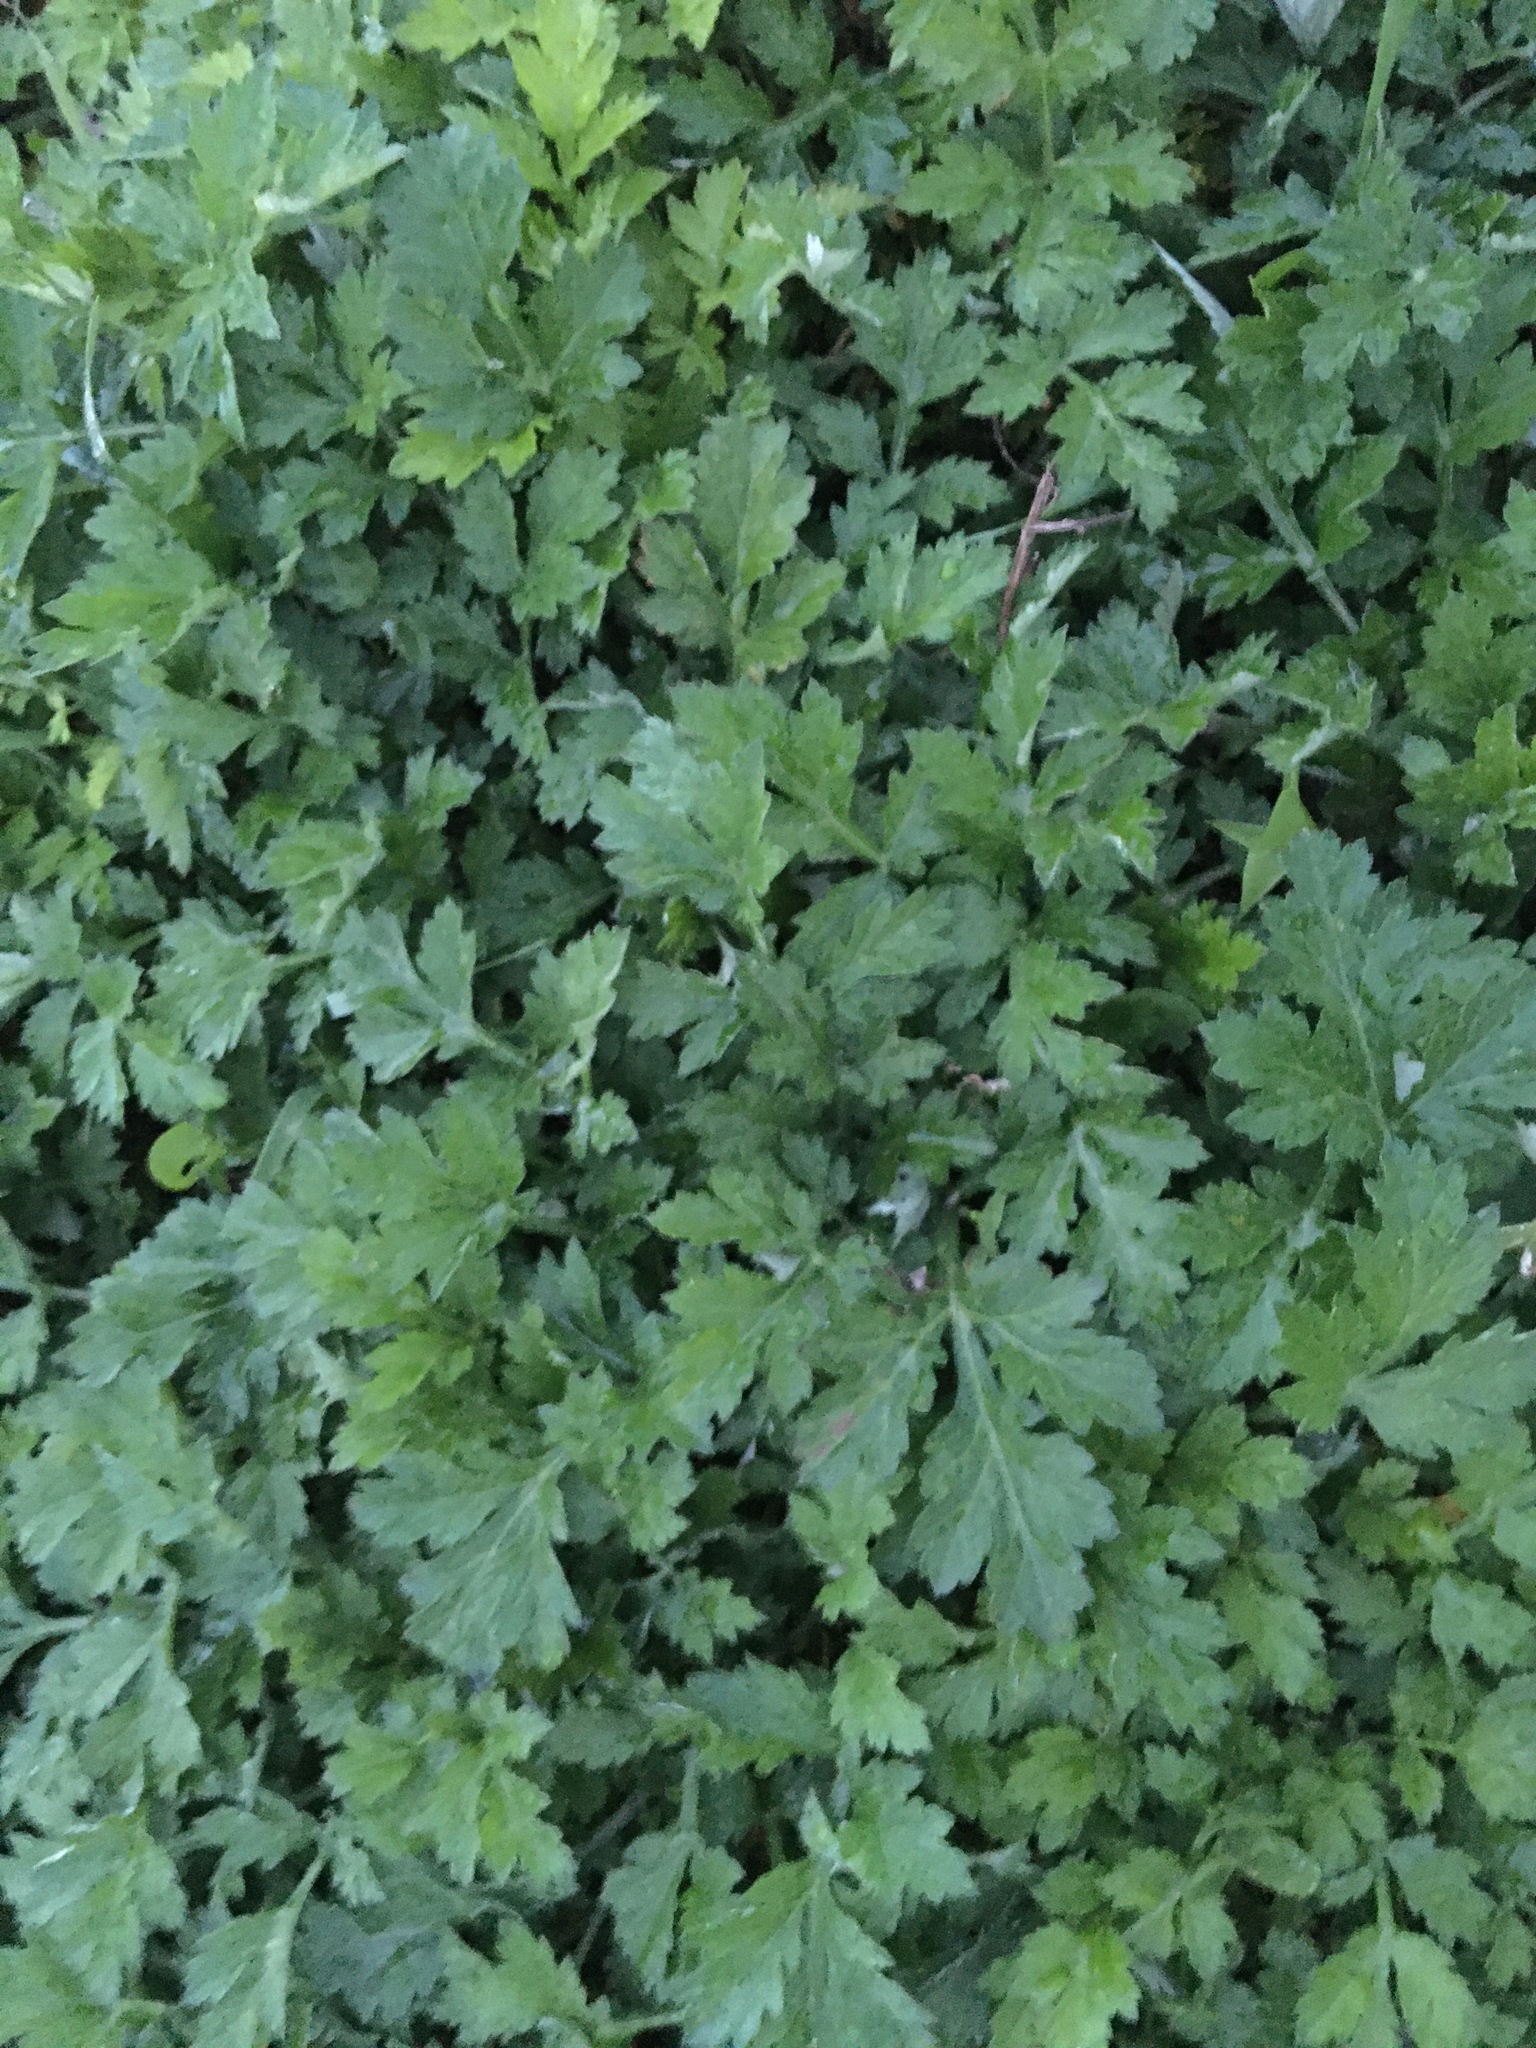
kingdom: Plantae
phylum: Tracheophyta
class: Magnoliopsida
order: Asterales
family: Asteraceae
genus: Artemisia
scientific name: Artemisia vulgaris
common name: Mugwort
